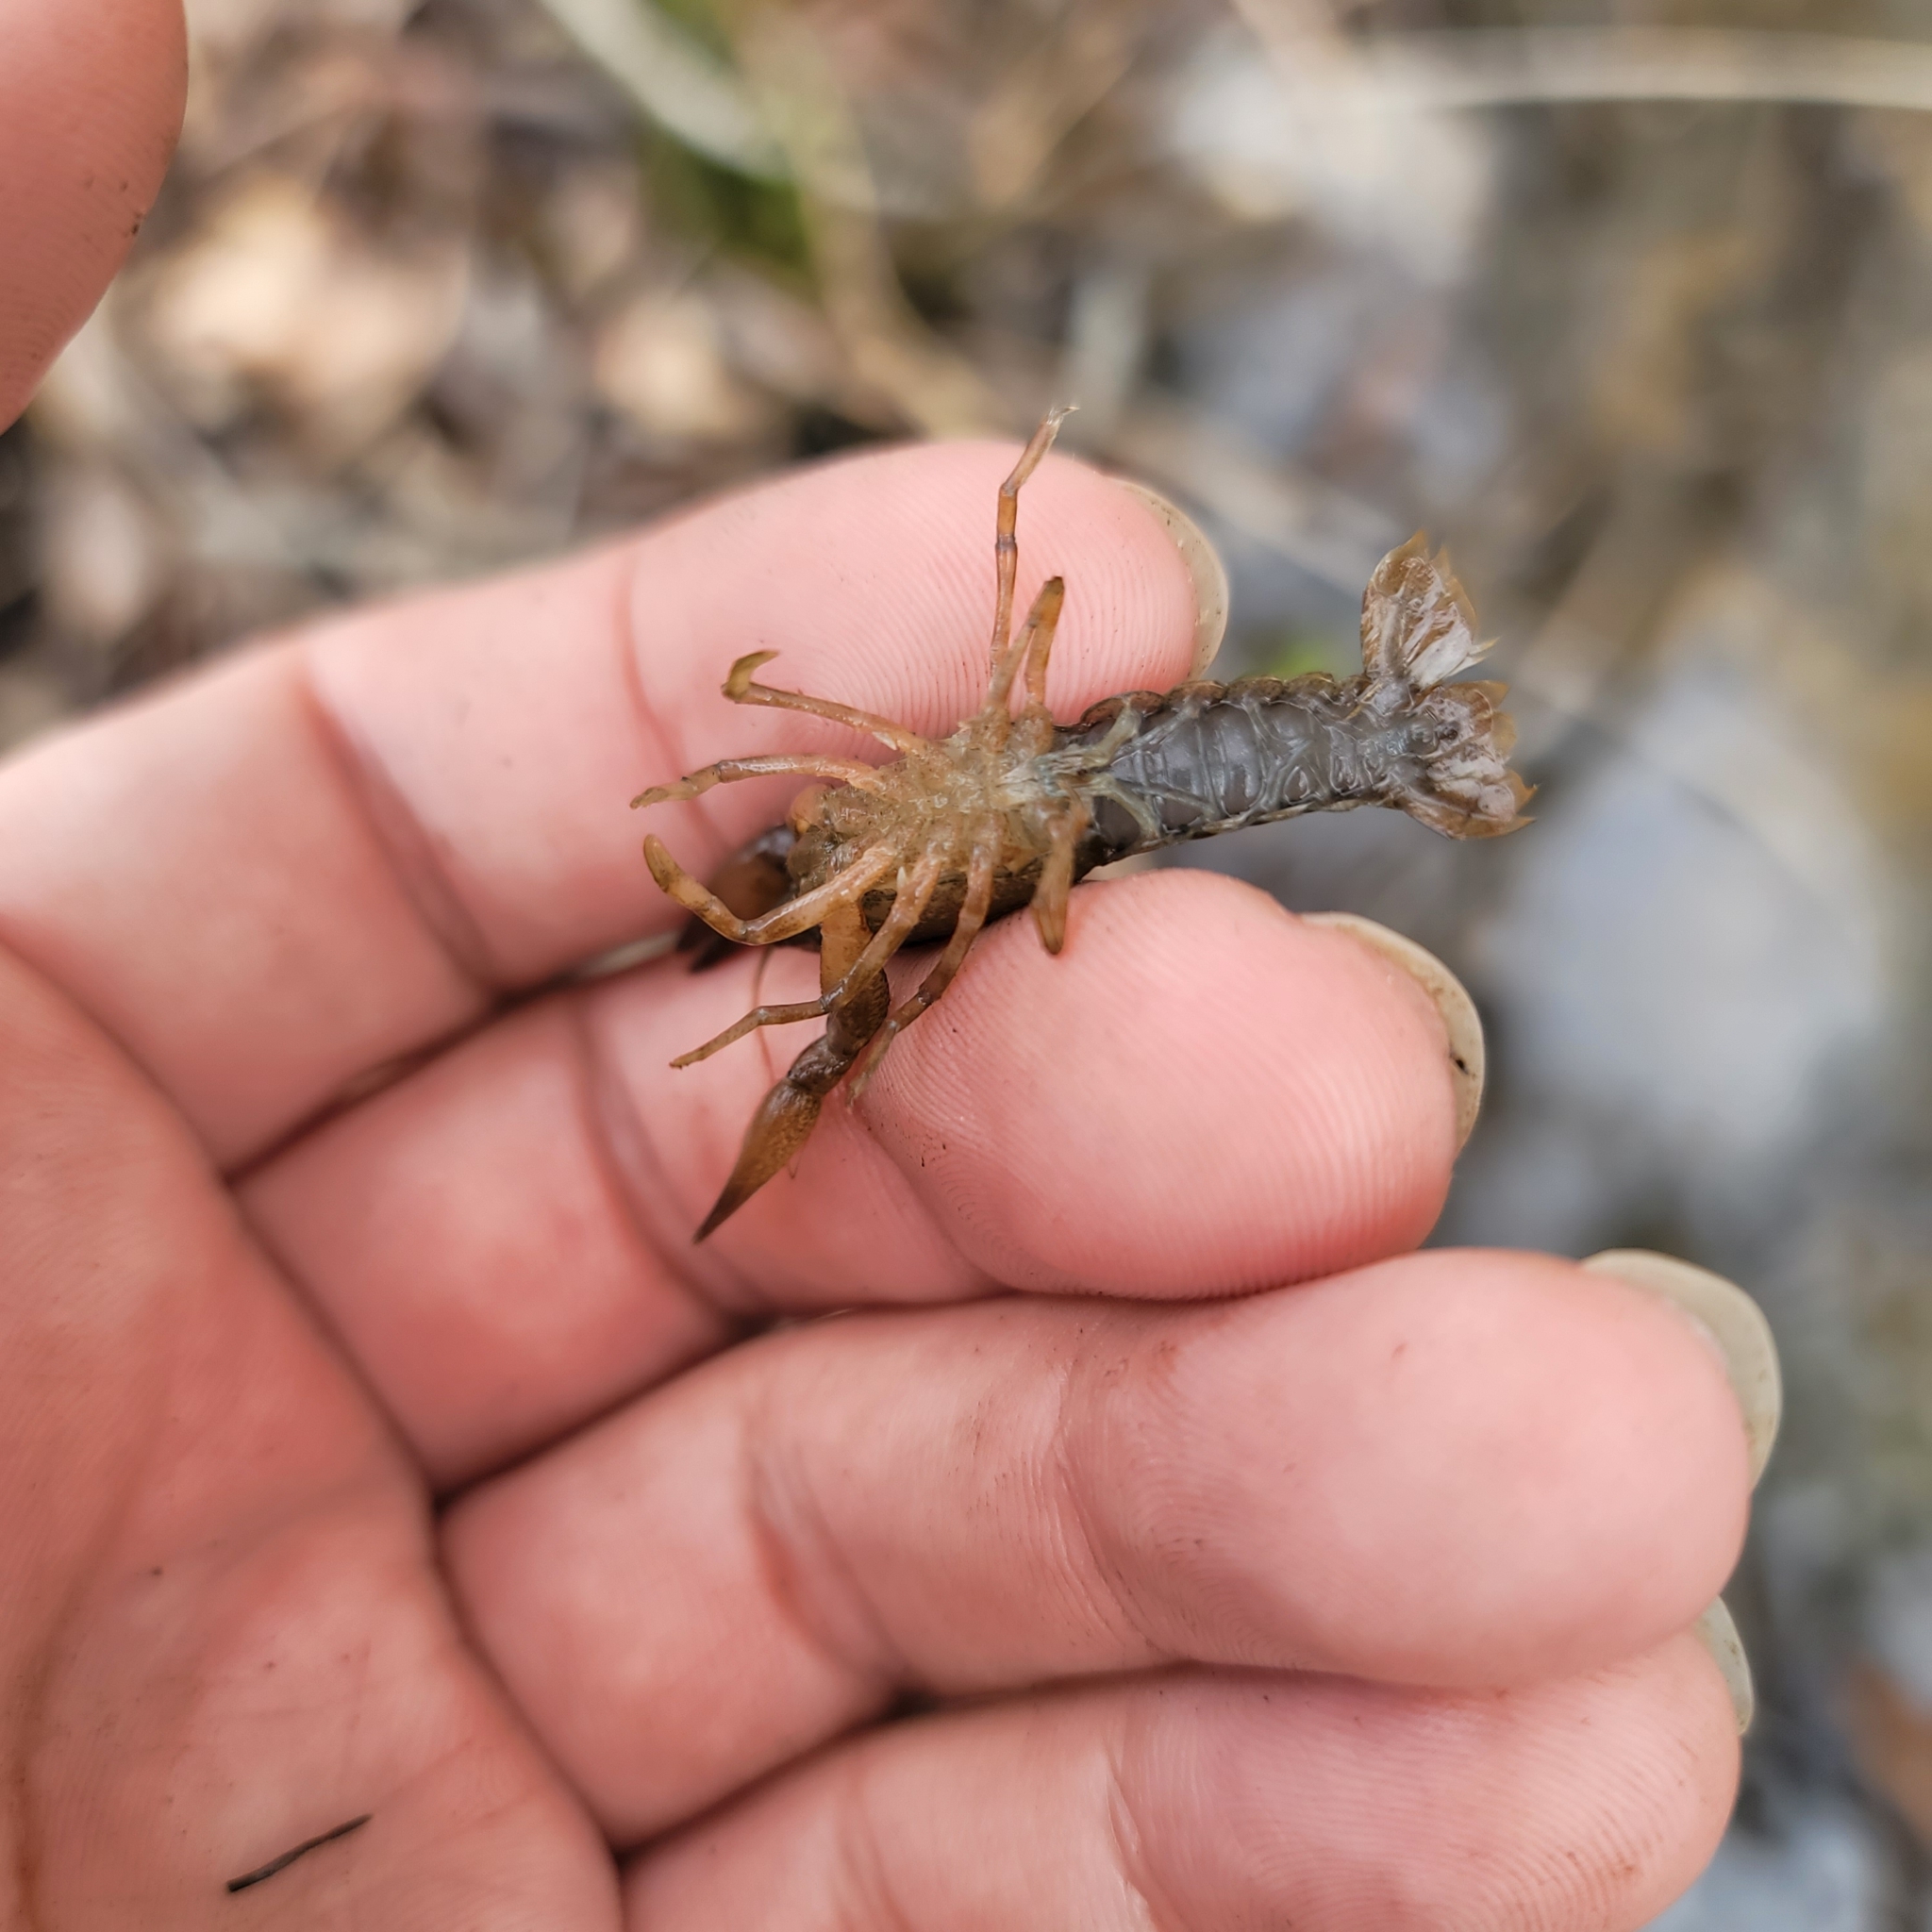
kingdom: Animalia
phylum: Arthropoda
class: Malacostraca
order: Decapoda
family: Cambaridae
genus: Hobbseus
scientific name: Hobbseus prominens
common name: Prominence riverlet crayfish
